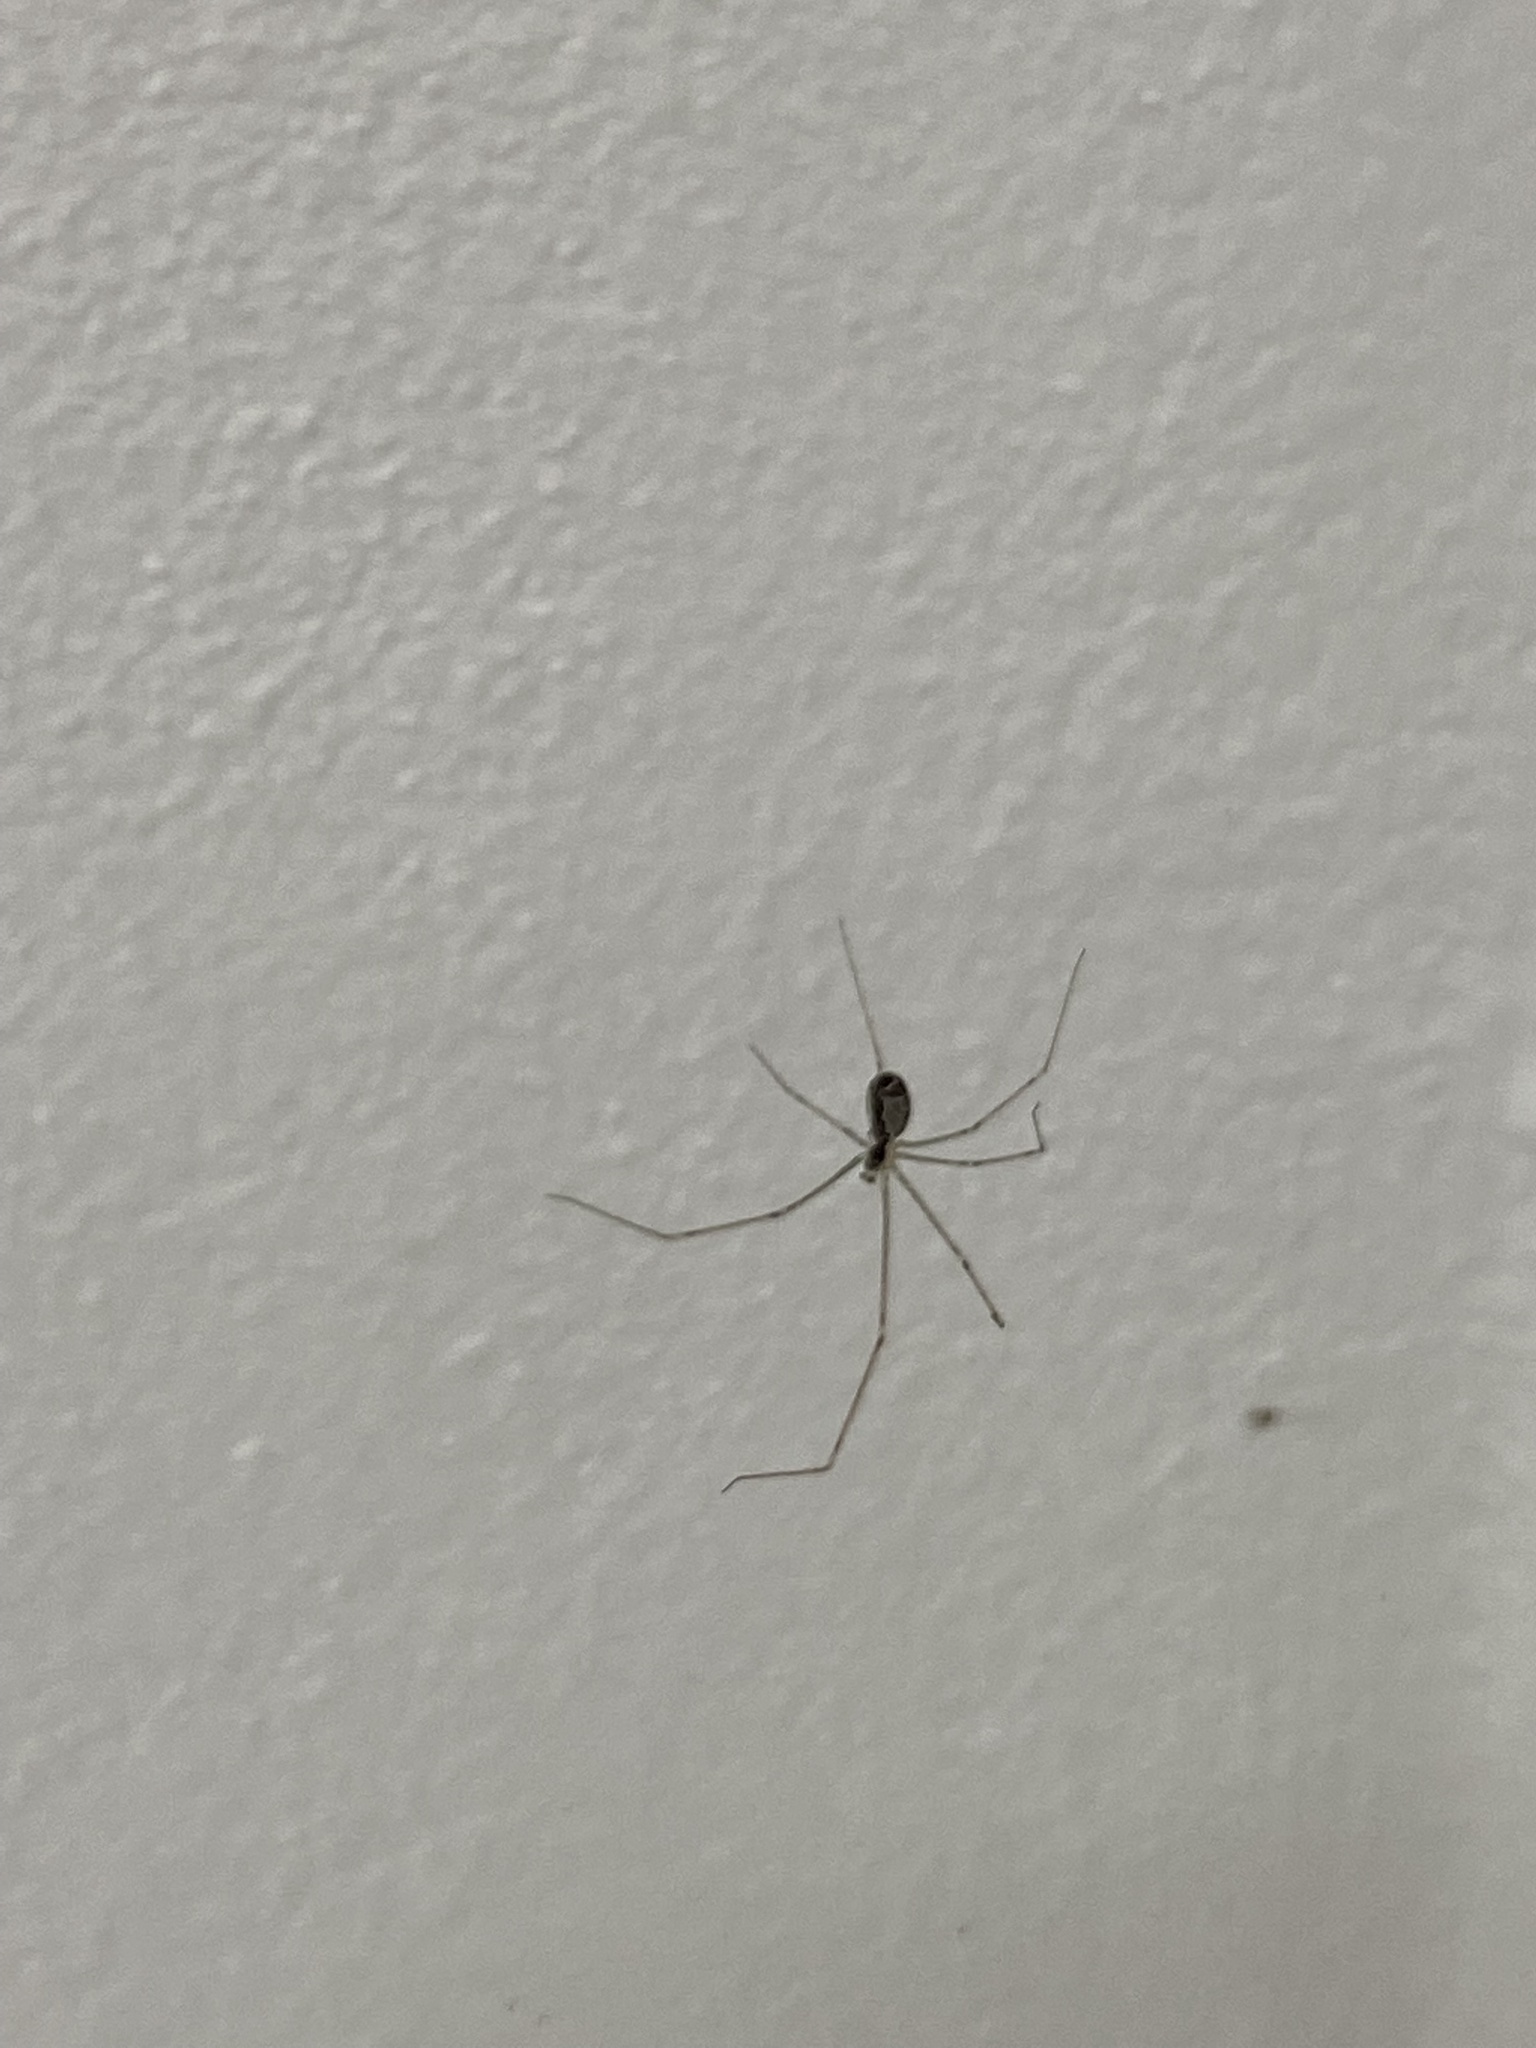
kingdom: Animalia
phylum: Arthropoda
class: Arachnida
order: Araneae
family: Pholcidae
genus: Holocnemus
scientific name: Holocnemus pluchei
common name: Marbled cellar spider
